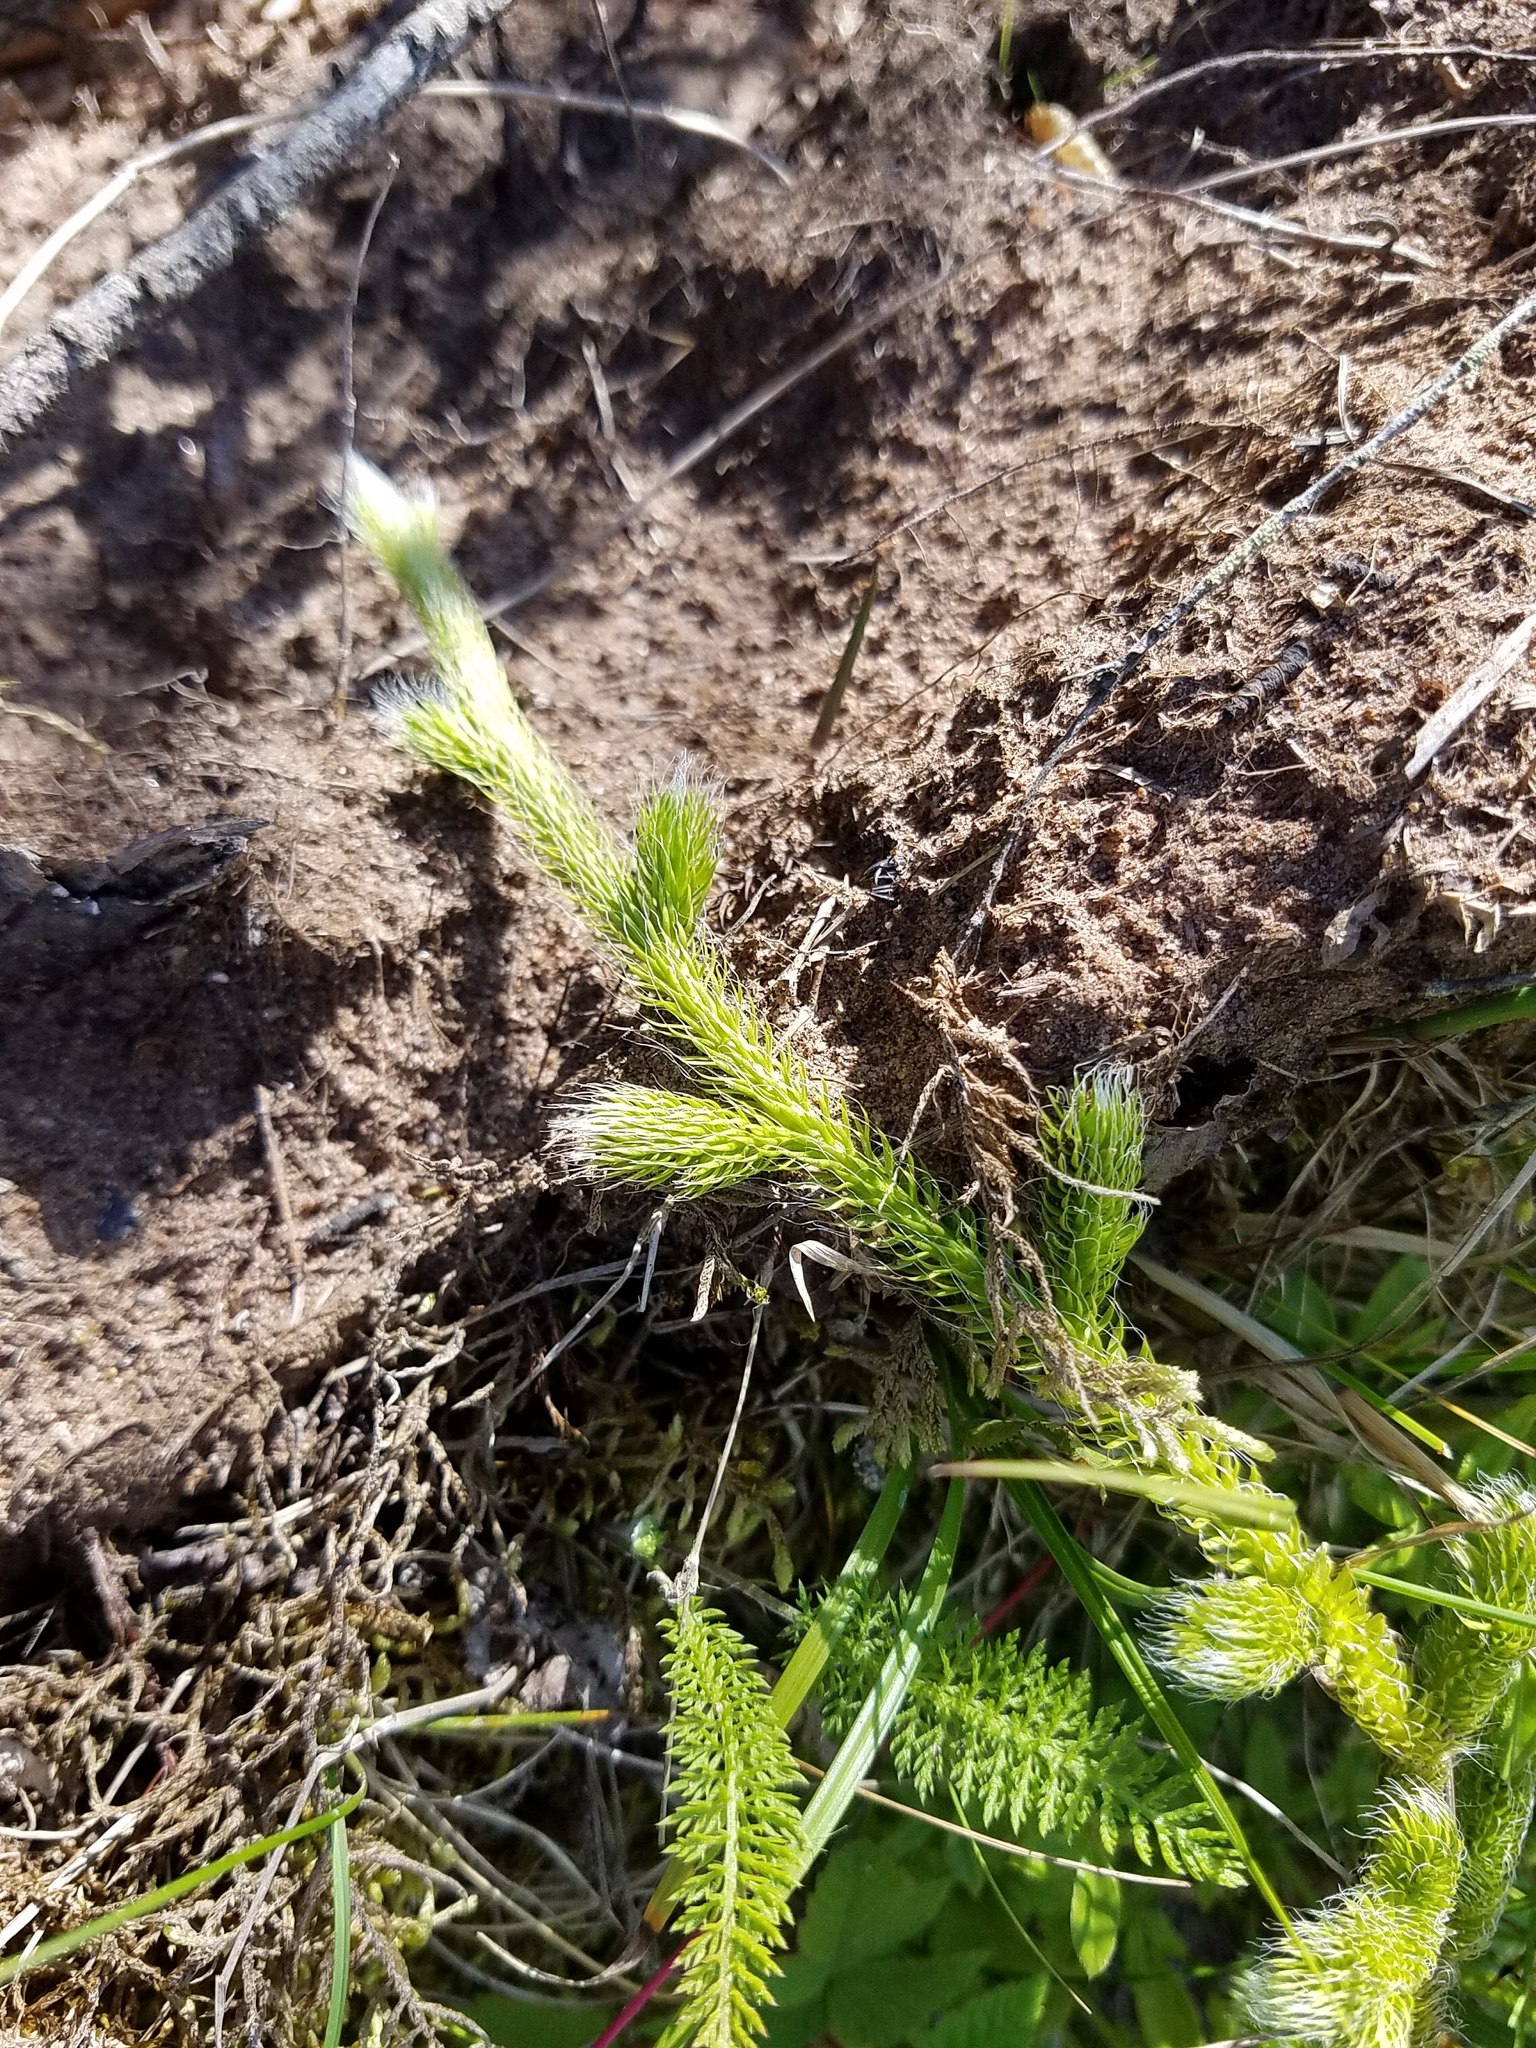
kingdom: Plantae
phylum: Tracheophyta
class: Lycopodiopsida
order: Lycopodiales
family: Lycopodiaceae
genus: Lycopodium
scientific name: Lycopodium clavatum
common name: Stag's-horn clubmoss
